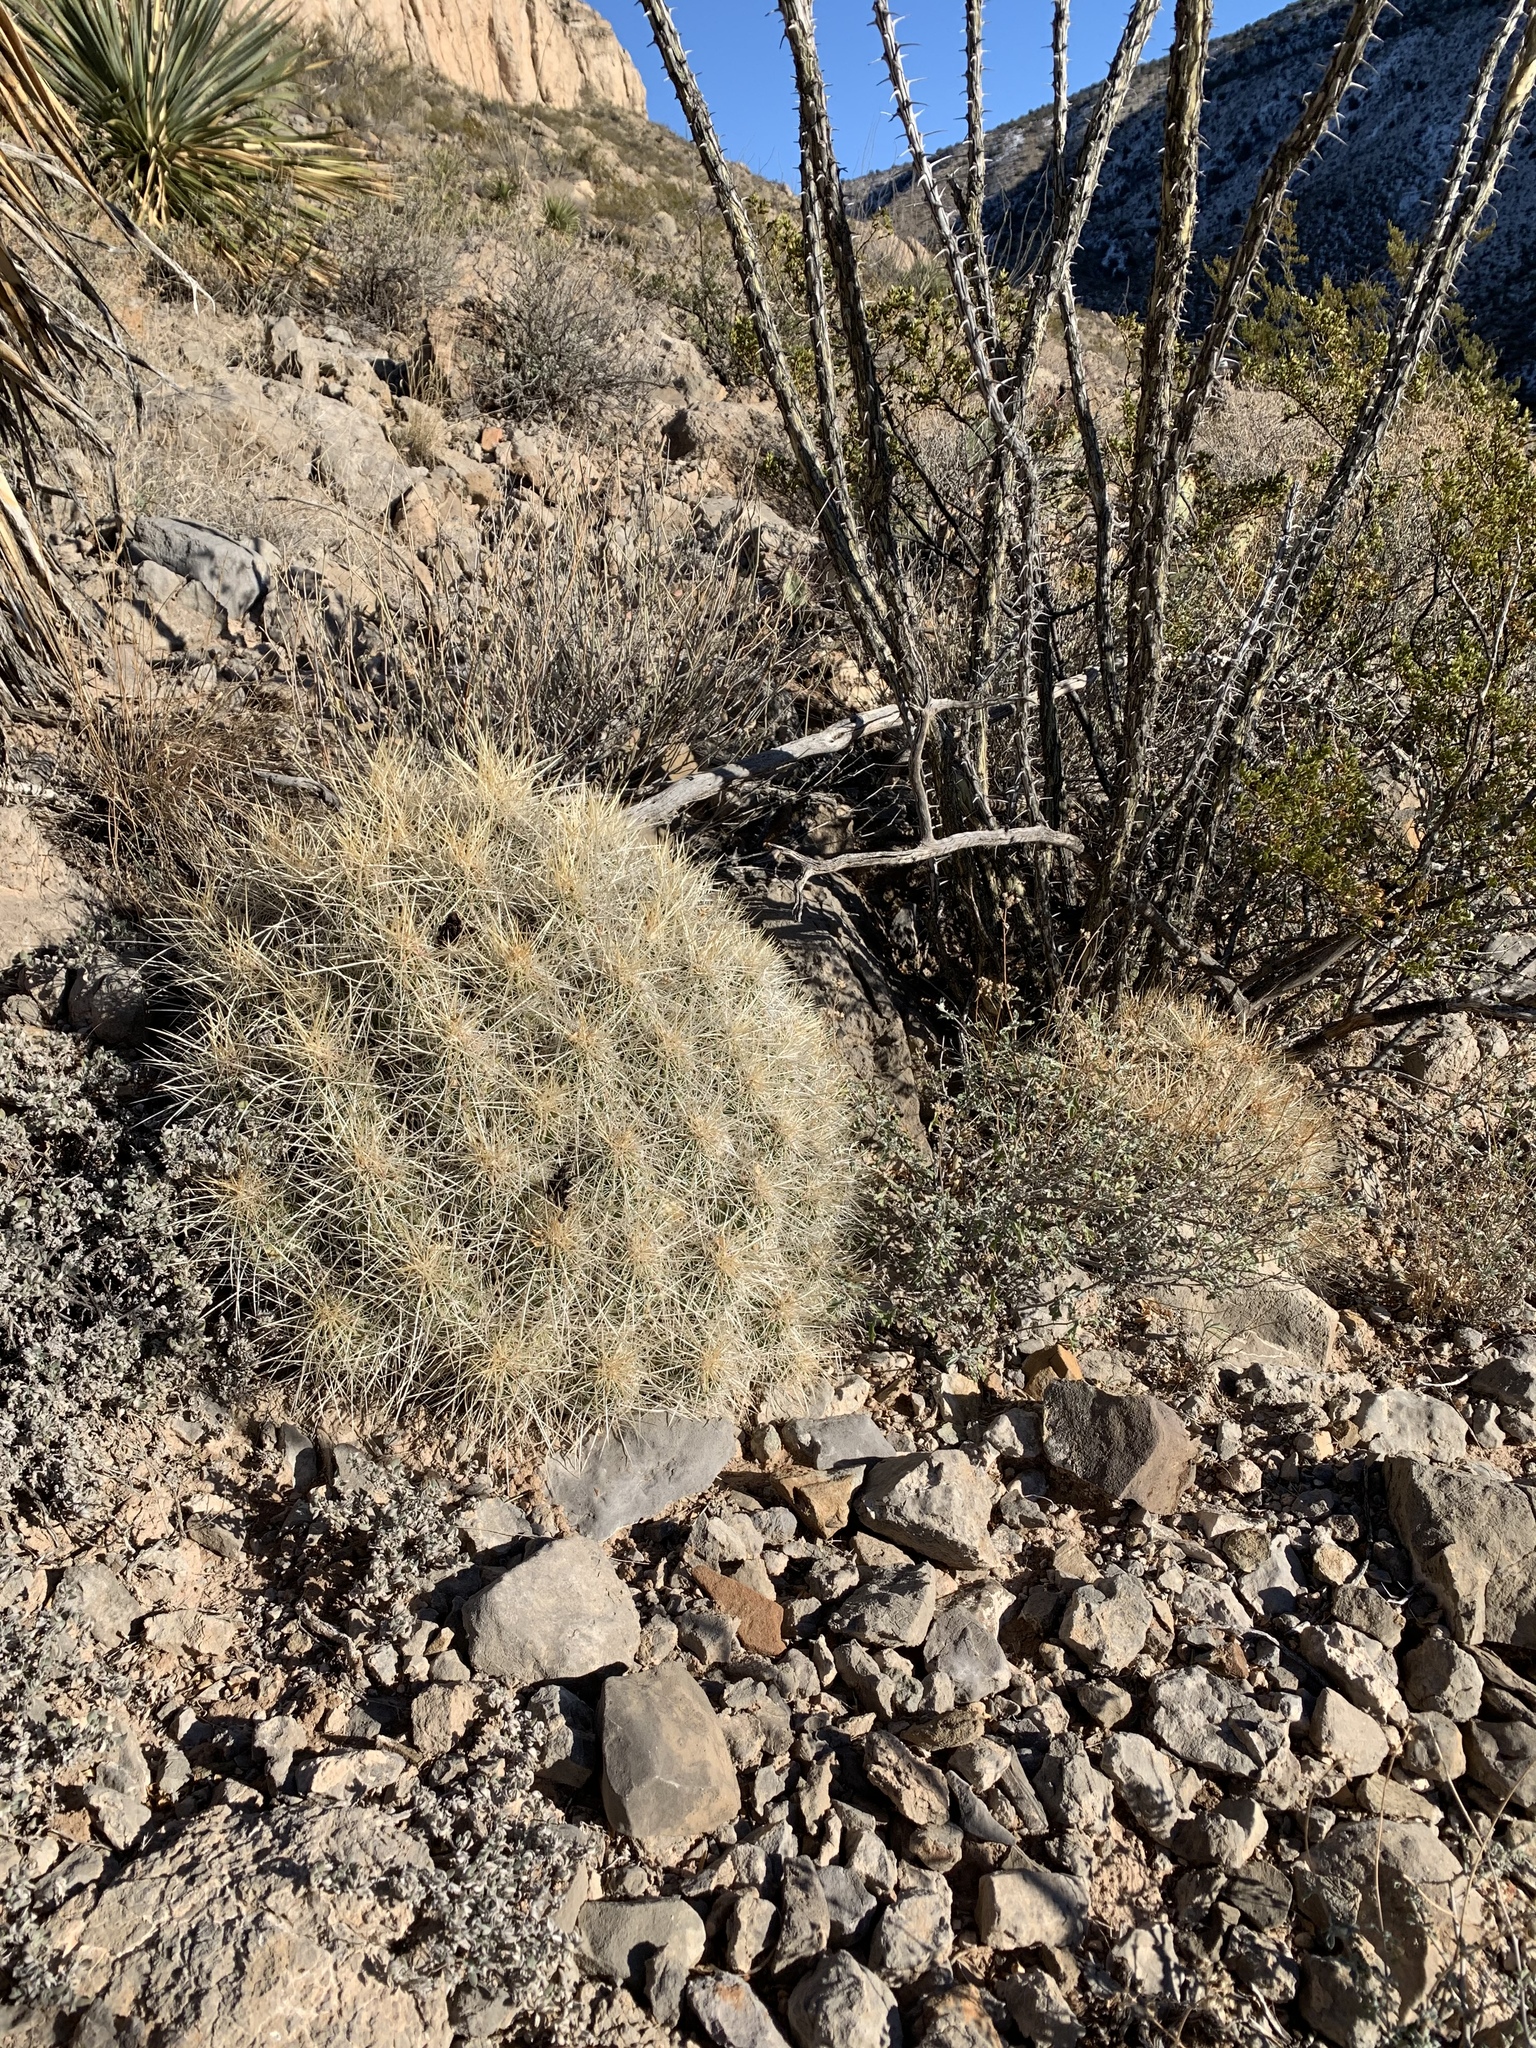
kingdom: Plantae
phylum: Tracheophyta
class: Magnoliopsida
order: Caryophyllales
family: Cactaceae
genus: Echinocereus
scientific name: Echinocereus stramineus
